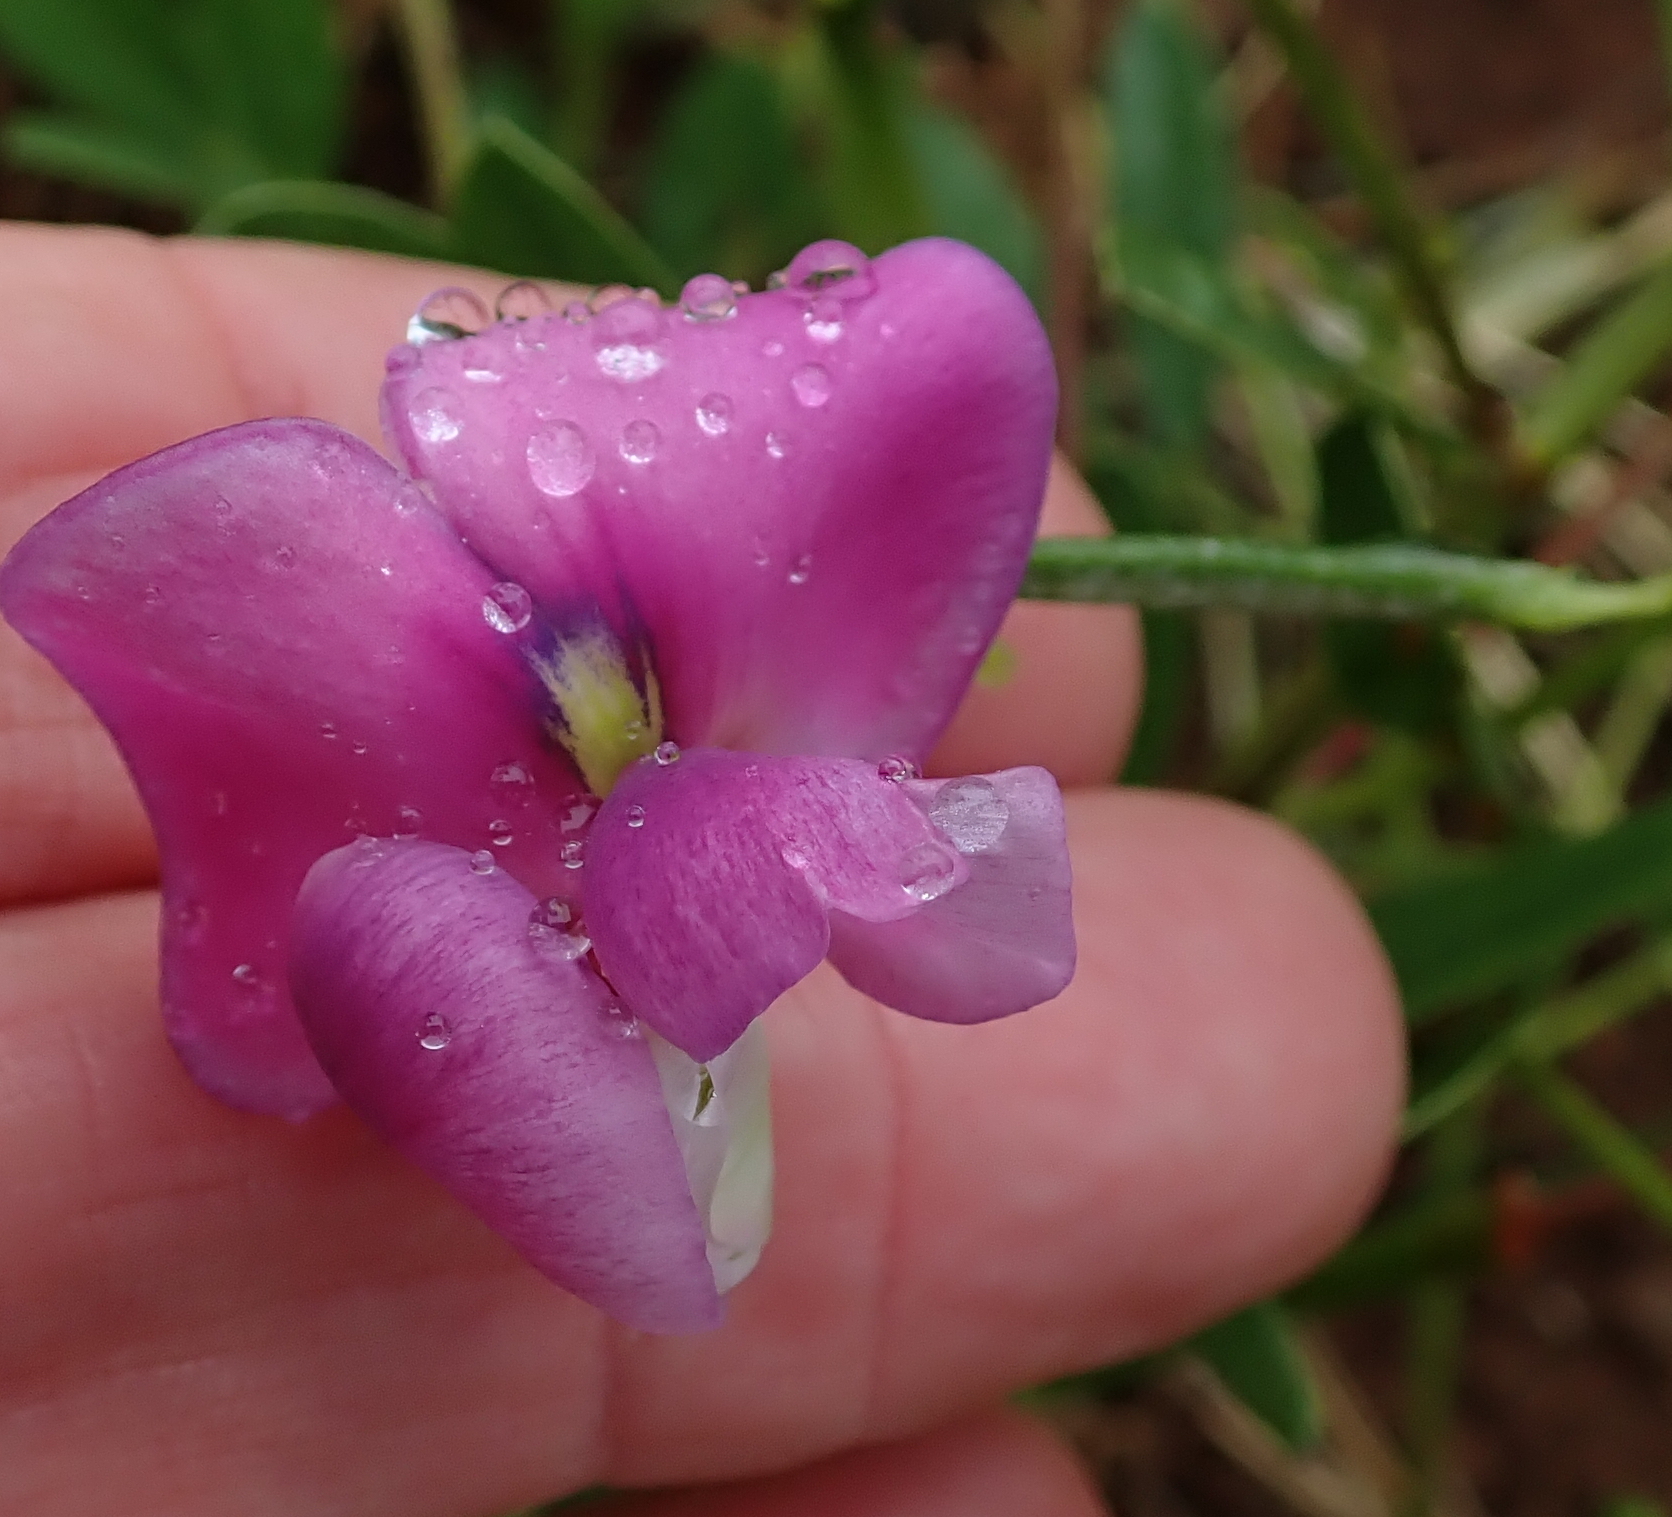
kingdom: Plantae
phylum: Tracheophyta
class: Magnoliopsida
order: Fabales
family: Fabaceae
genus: Sphenostylis
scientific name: Sphenostylis angustifolia
